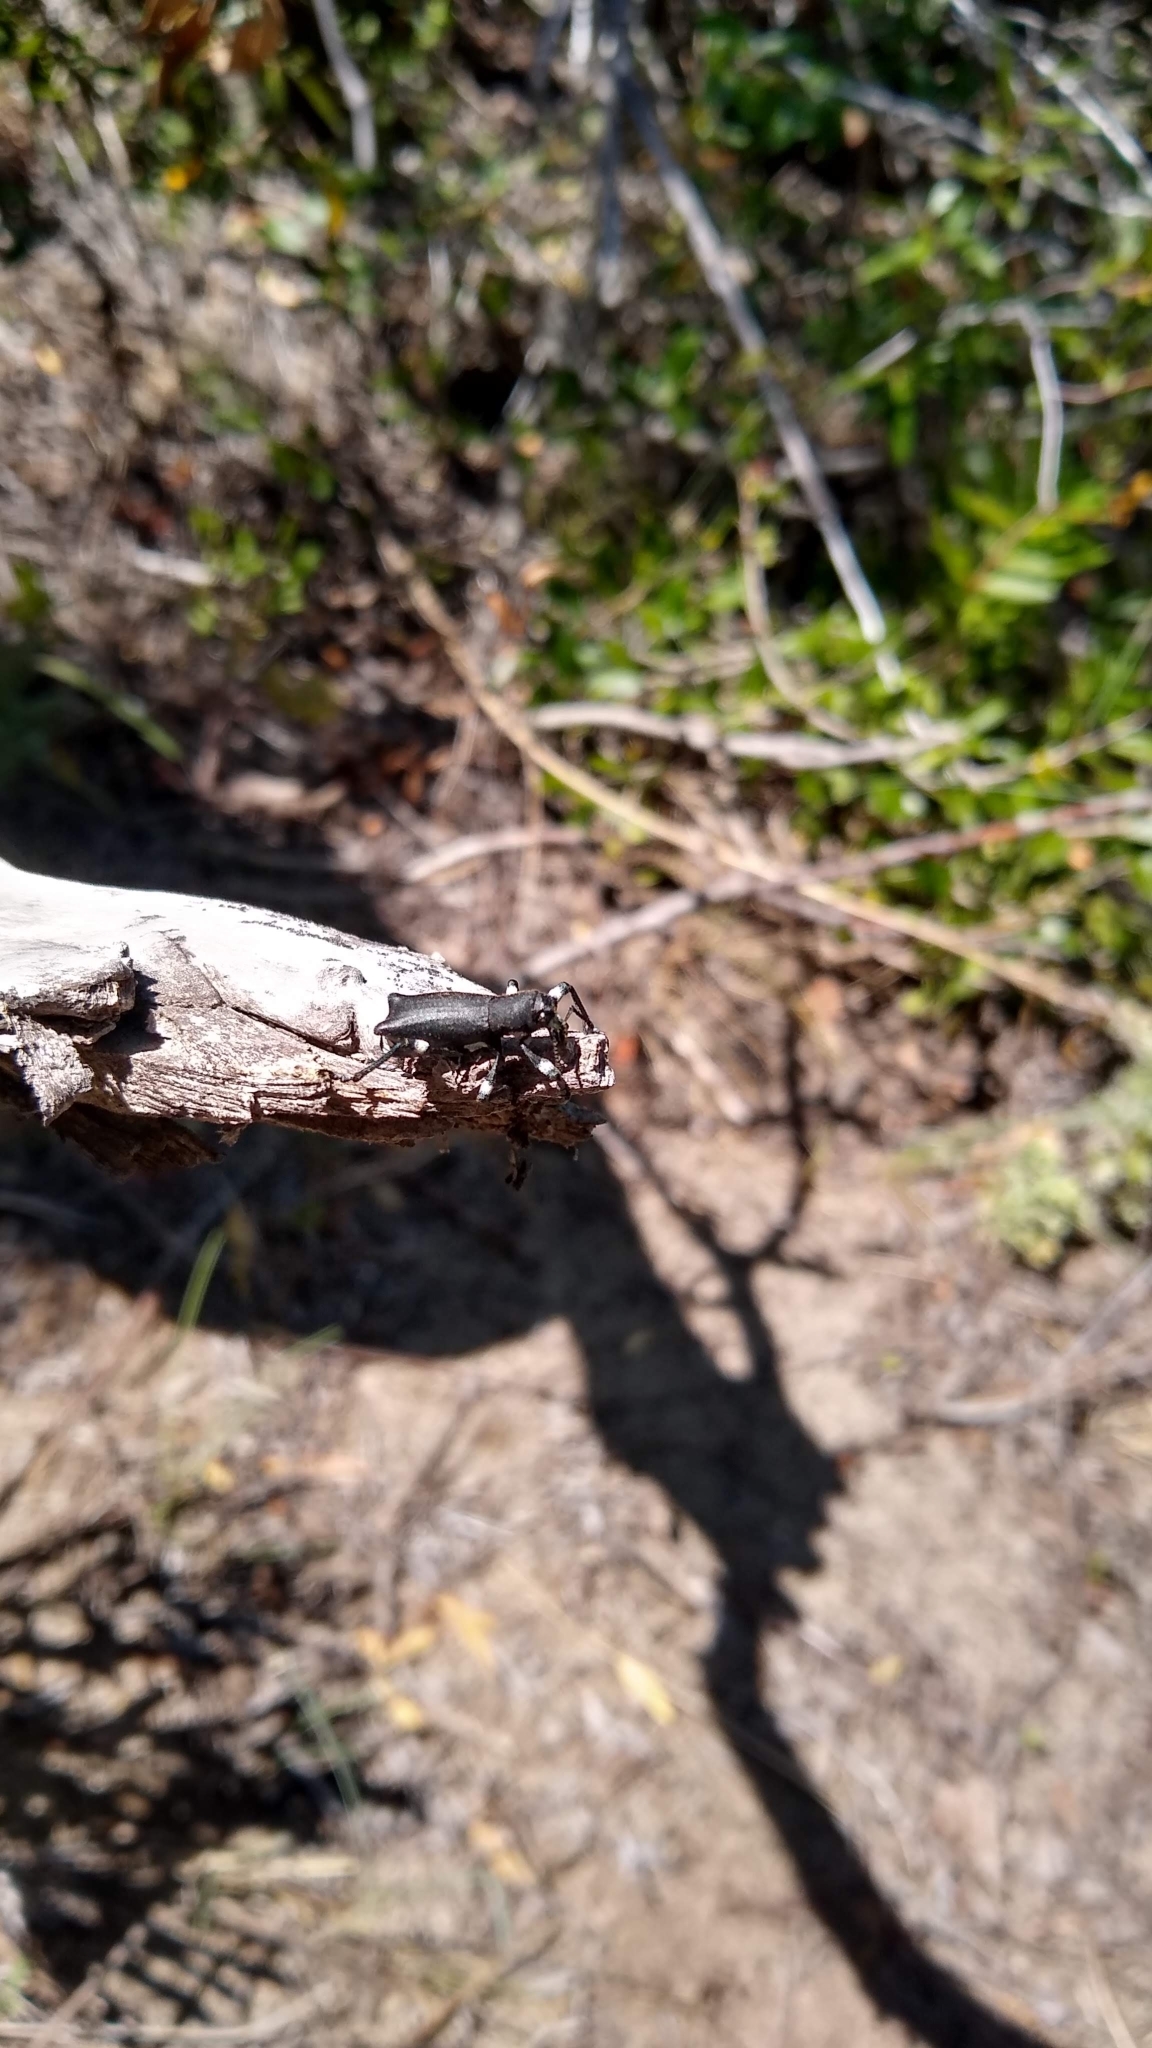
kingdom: Animalia
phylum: Arthropoda
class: Insecta
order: Coleoptera
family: Curculionidae
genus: Aegorhinus
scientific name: Aegorhinus
